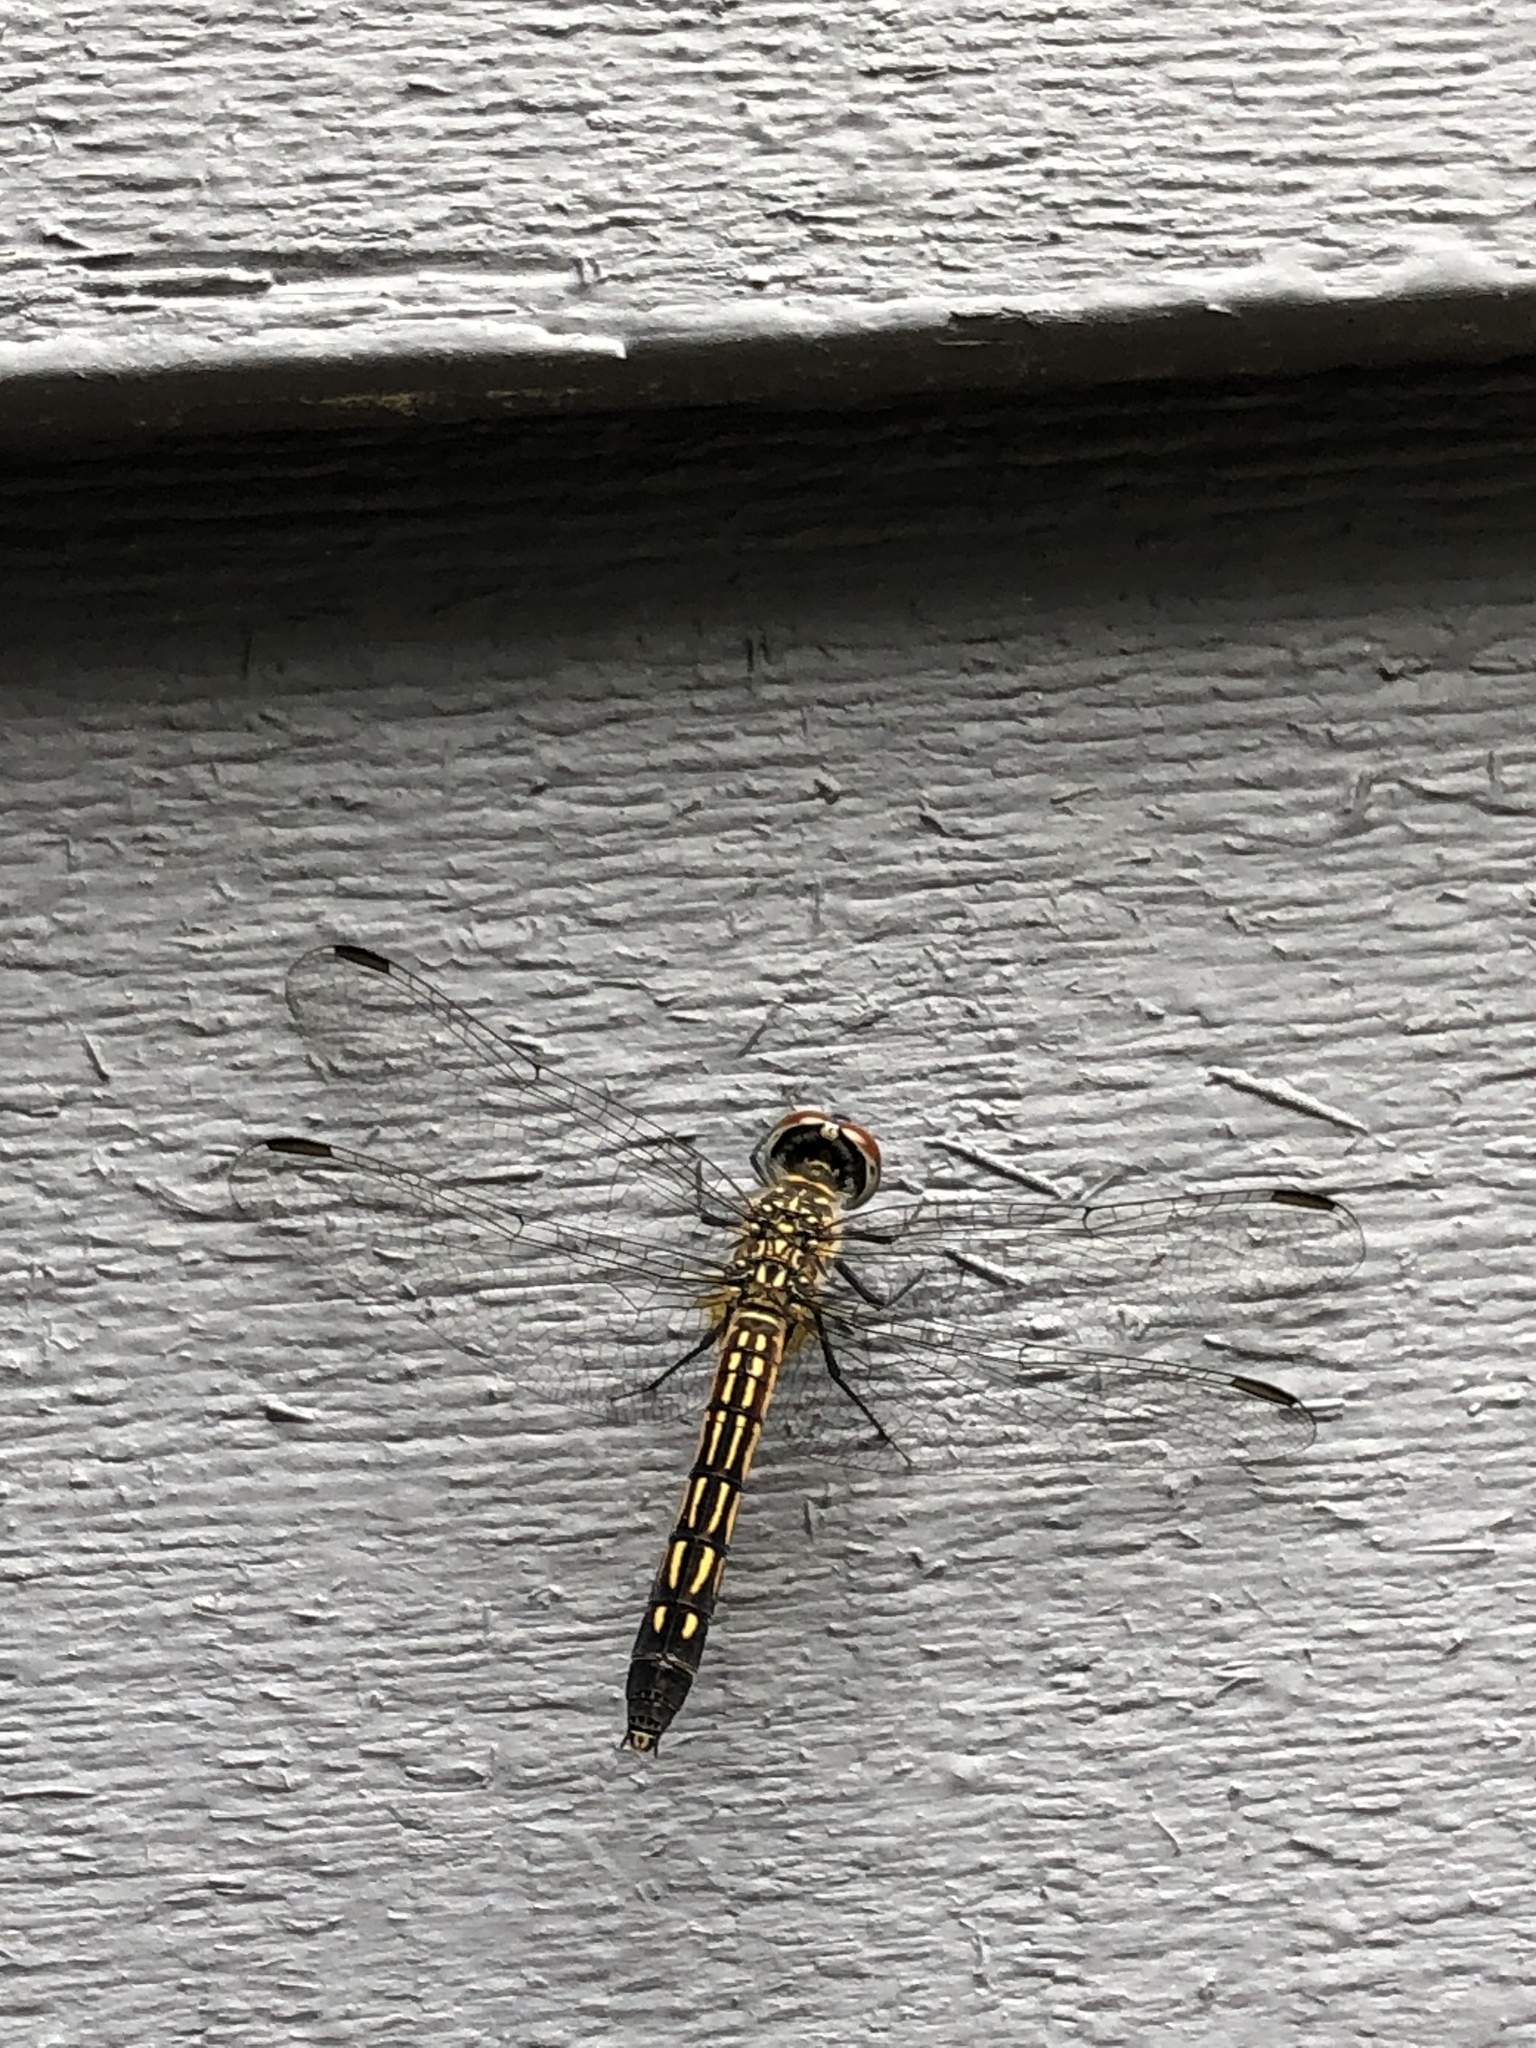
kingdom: Animalia
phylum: Arthropoda
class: Insecta
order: Odonata
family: Libellulidae
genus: Pachydiplax
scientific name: Pachydiplax longipennis
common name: Blue dasher
